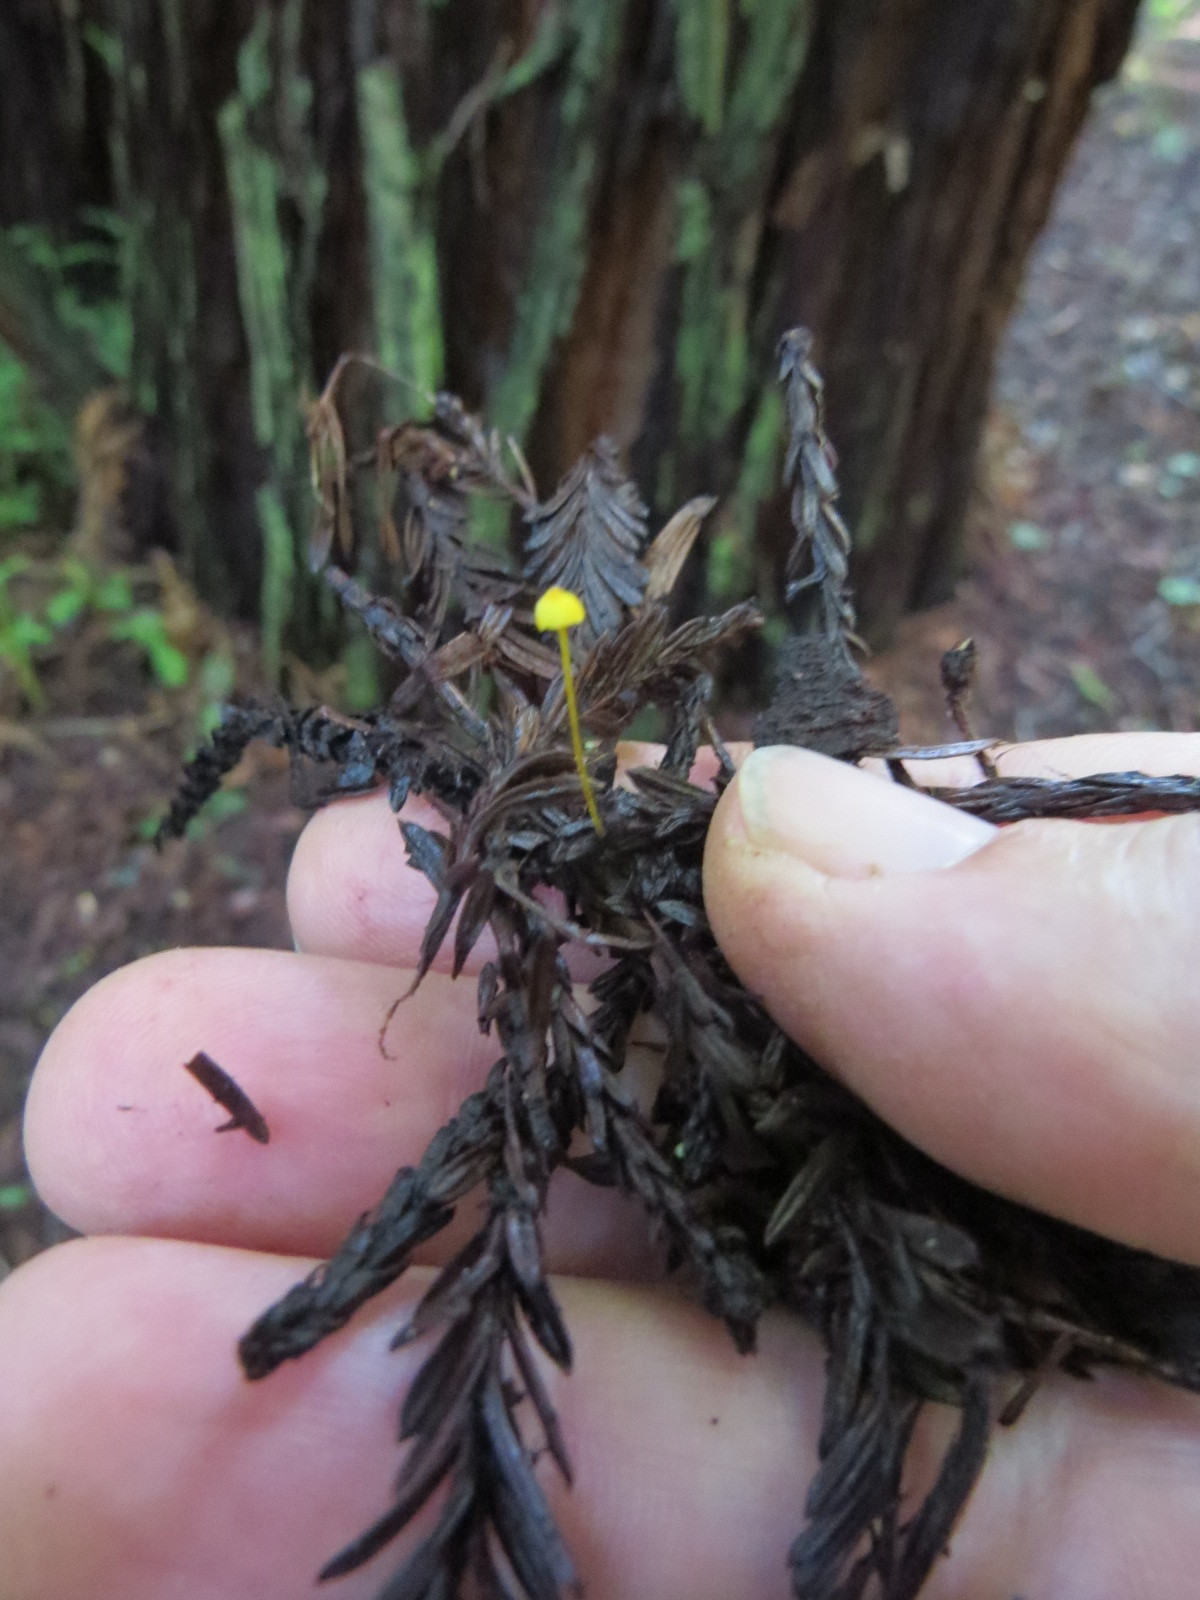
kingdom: Fungi
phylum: Basidiomycota
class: Agaricomycetes
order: Agaricales
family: Mycenaceae
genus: Mycena
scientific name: Mycena oregonensis
